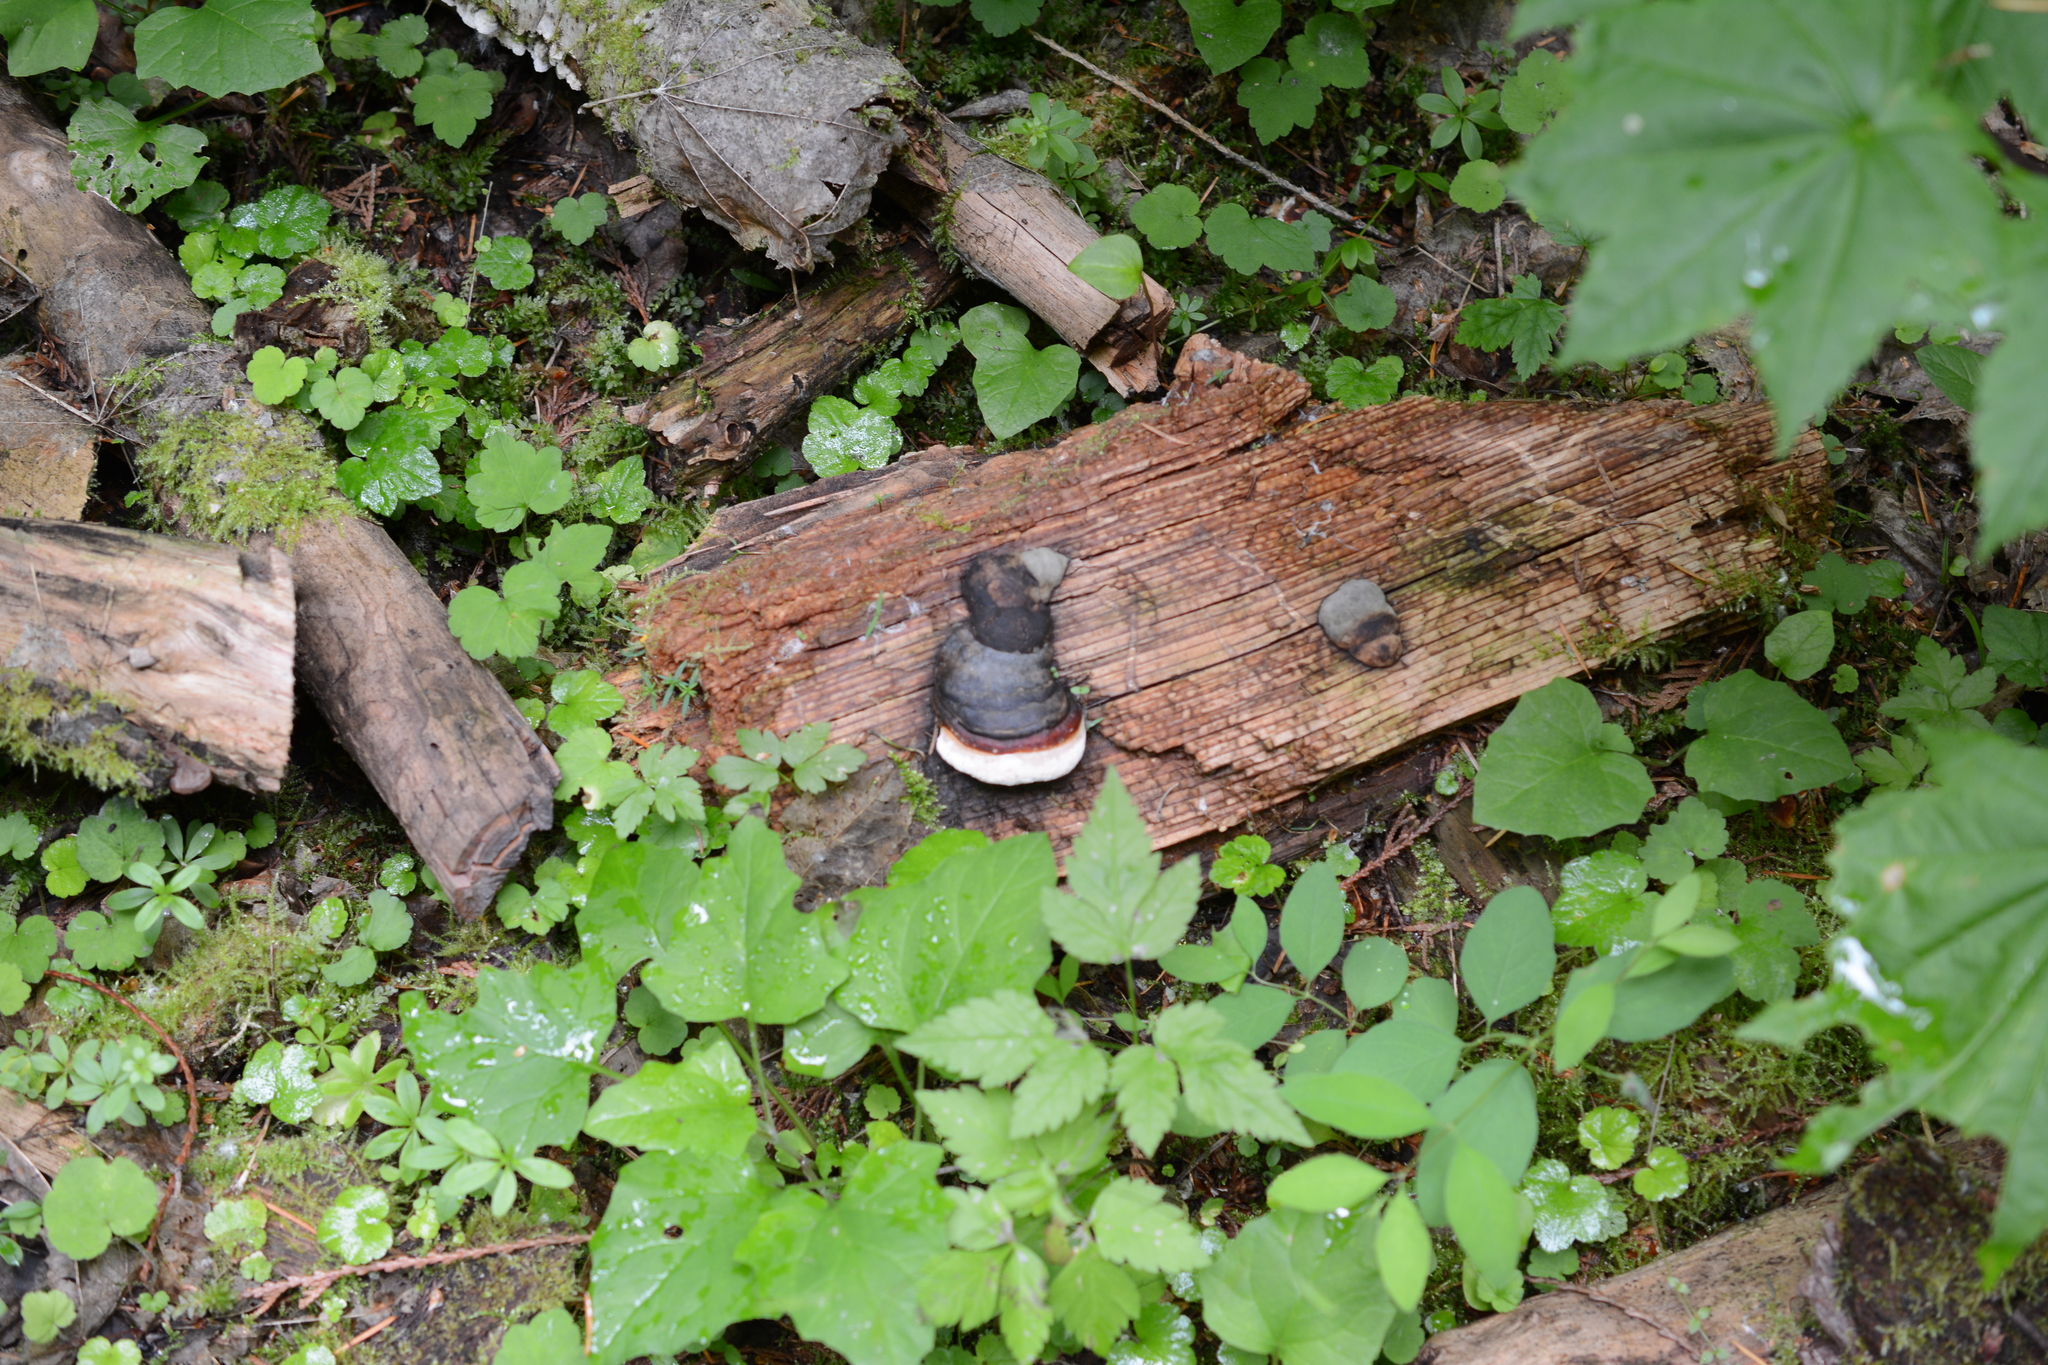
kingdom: Fungi
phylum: Basidiomycota
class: Agaricomycetes
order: Polyporales
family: Fomitopsidaceae
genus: Fomitopsis
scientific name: Fomitopsis mounceae
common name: Northern red belt
